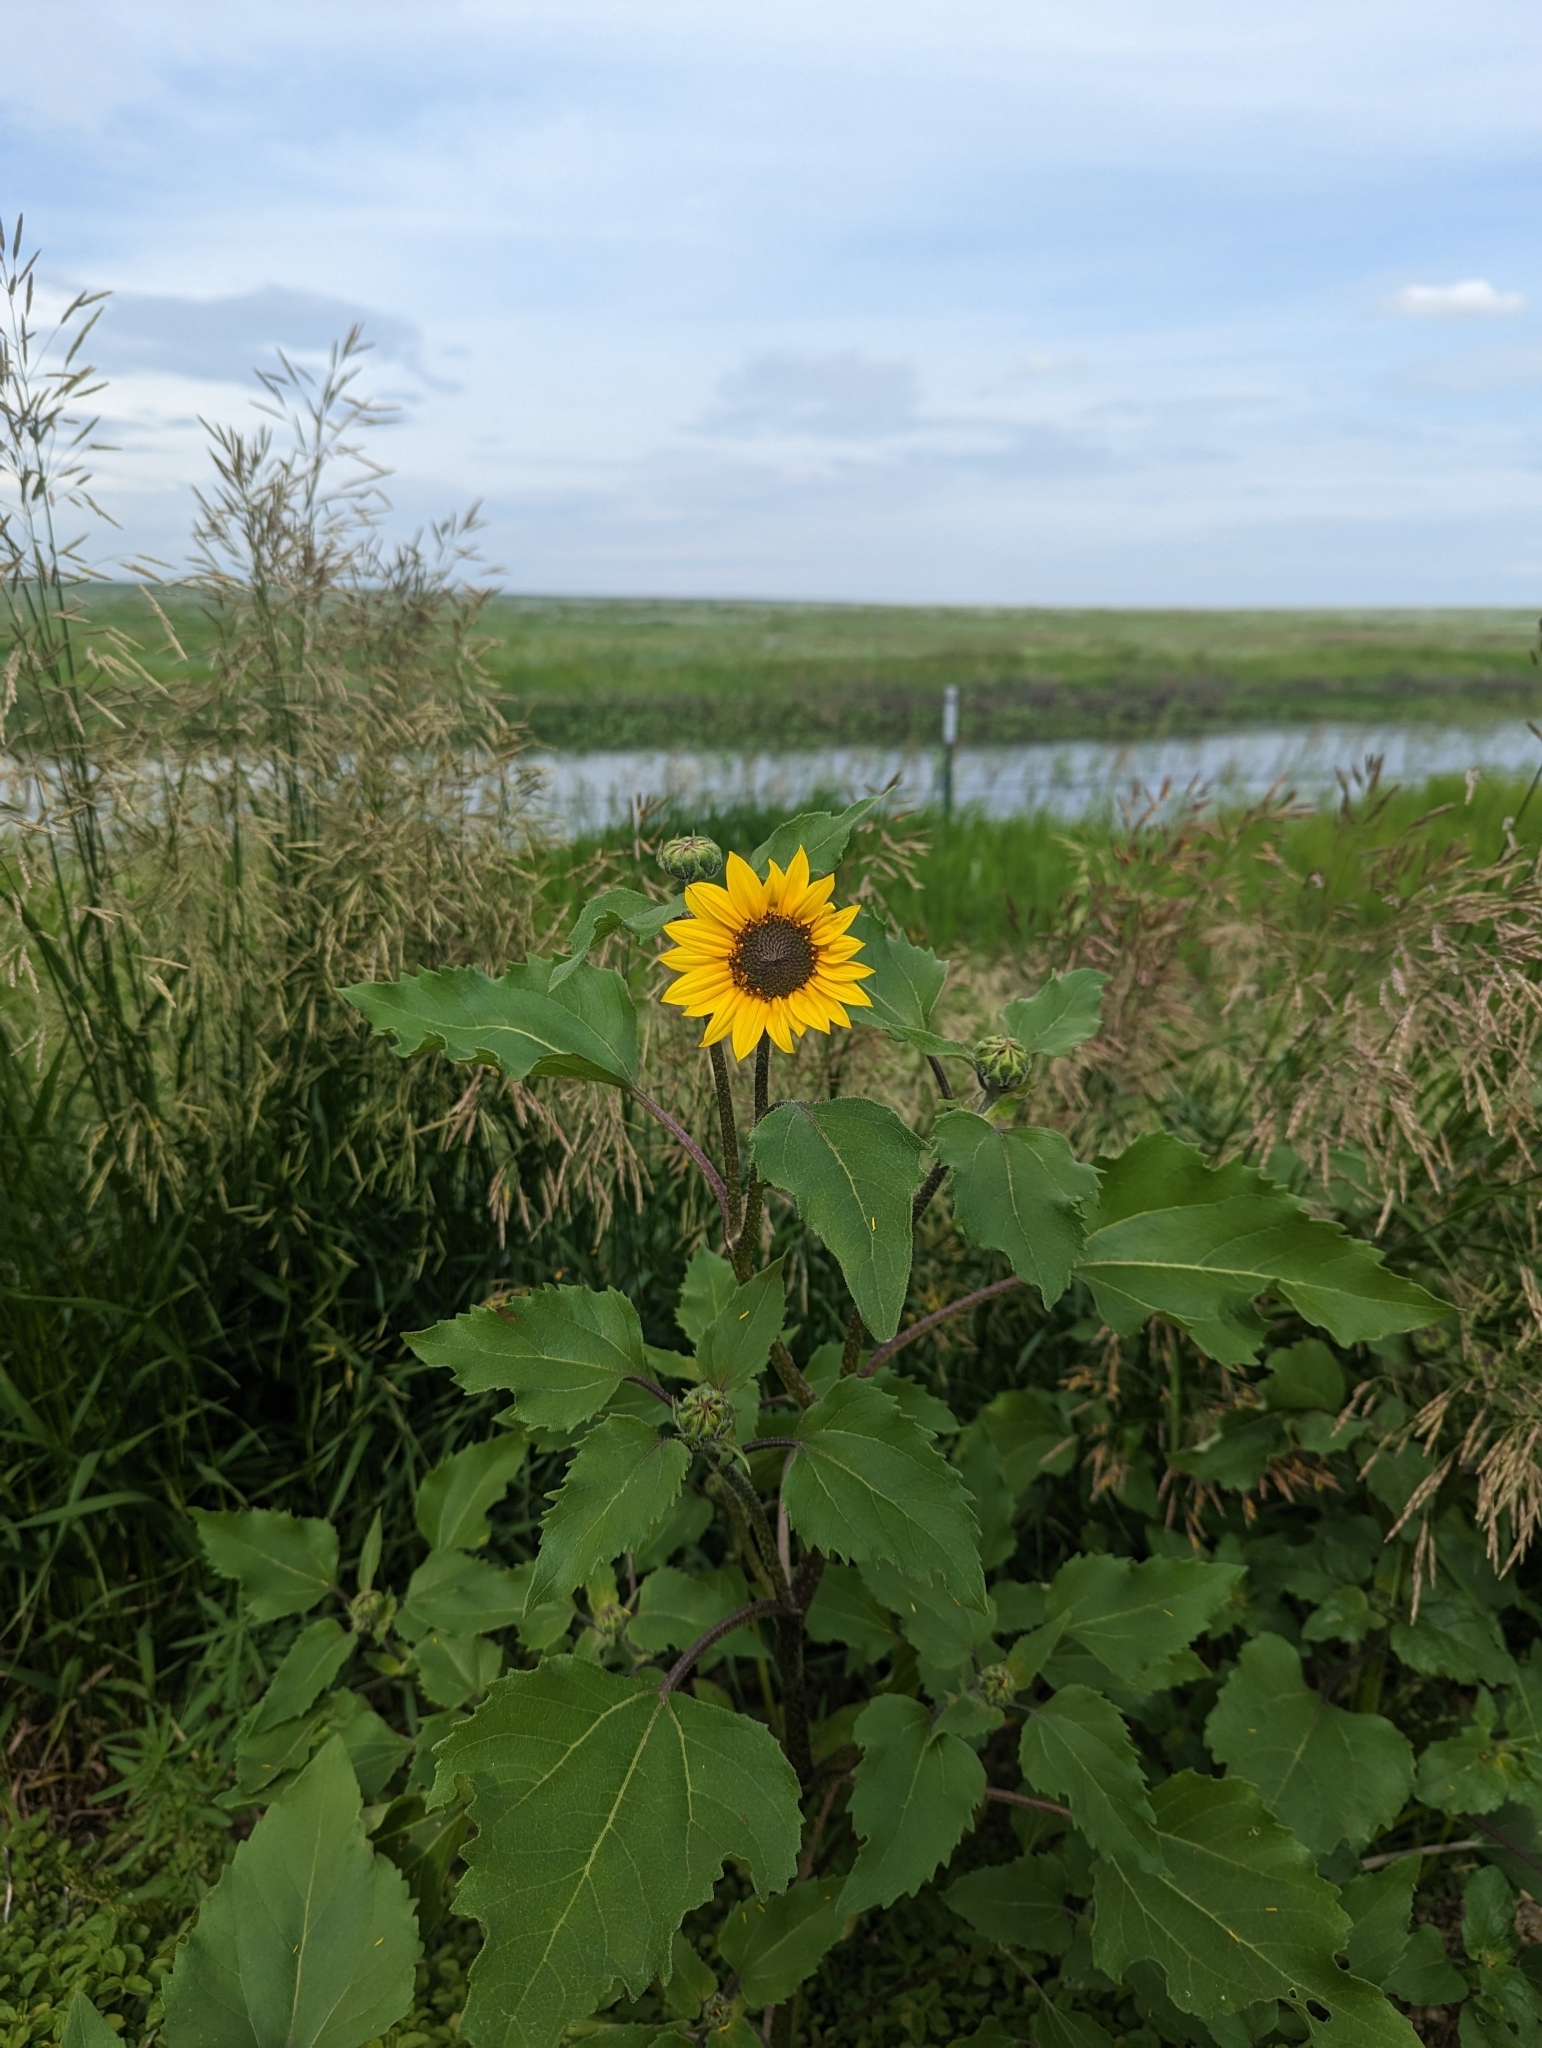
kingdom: Plantae
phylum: Tracheophyta
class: Magnoliopsida
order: Asterales
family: Asteraceae
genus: Helianthus
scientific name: Helianthus annuus
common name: Sunflower
